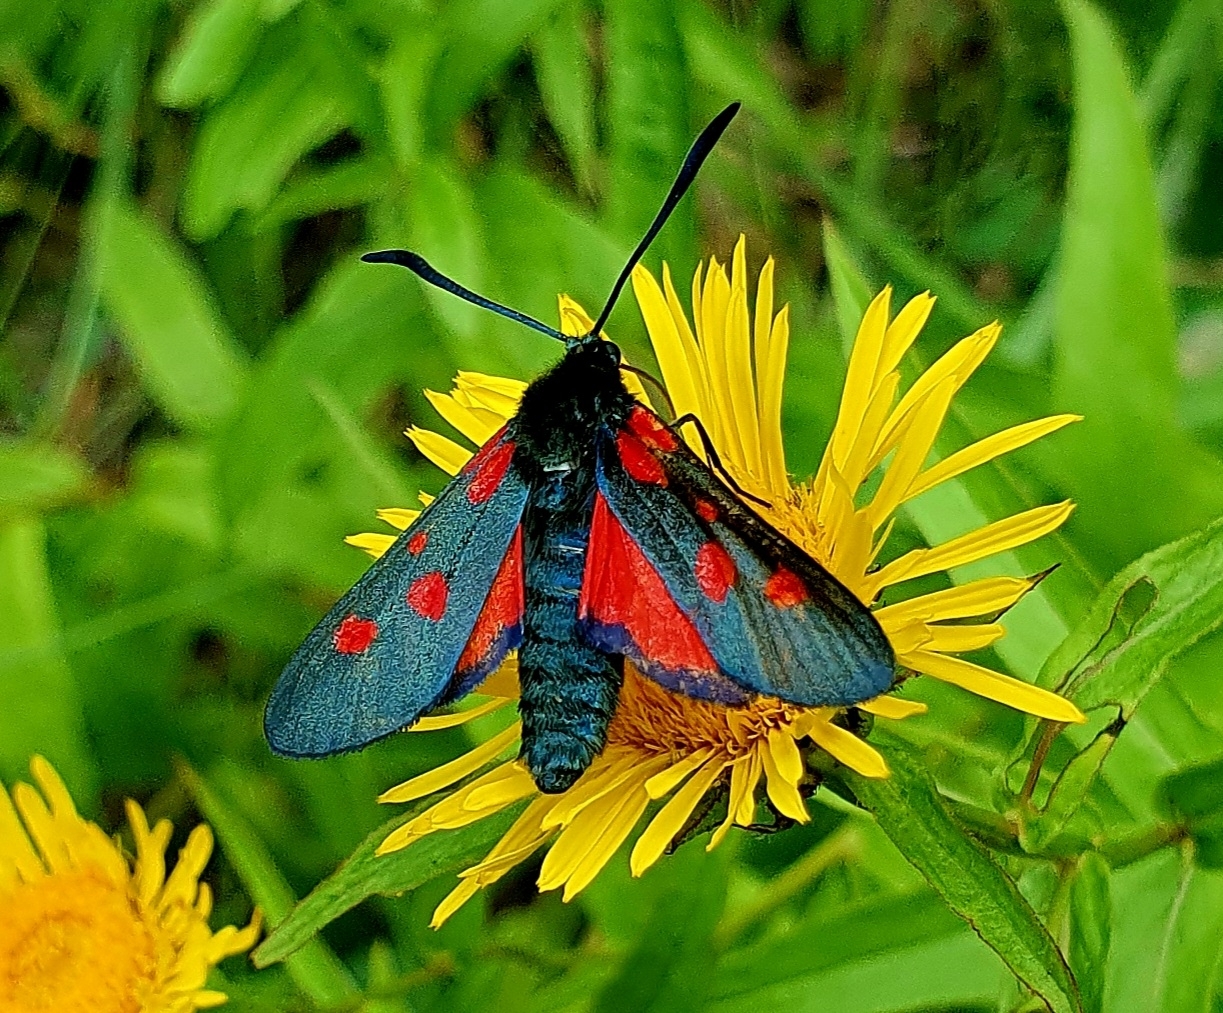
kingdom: Animalia
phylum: Arthropoda
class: Insecta
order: Lepidoptera
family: Zygaenidae
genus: Zygaena
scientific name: Zygaena lonicerae
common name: Narrow-bordered five-spot burnet
